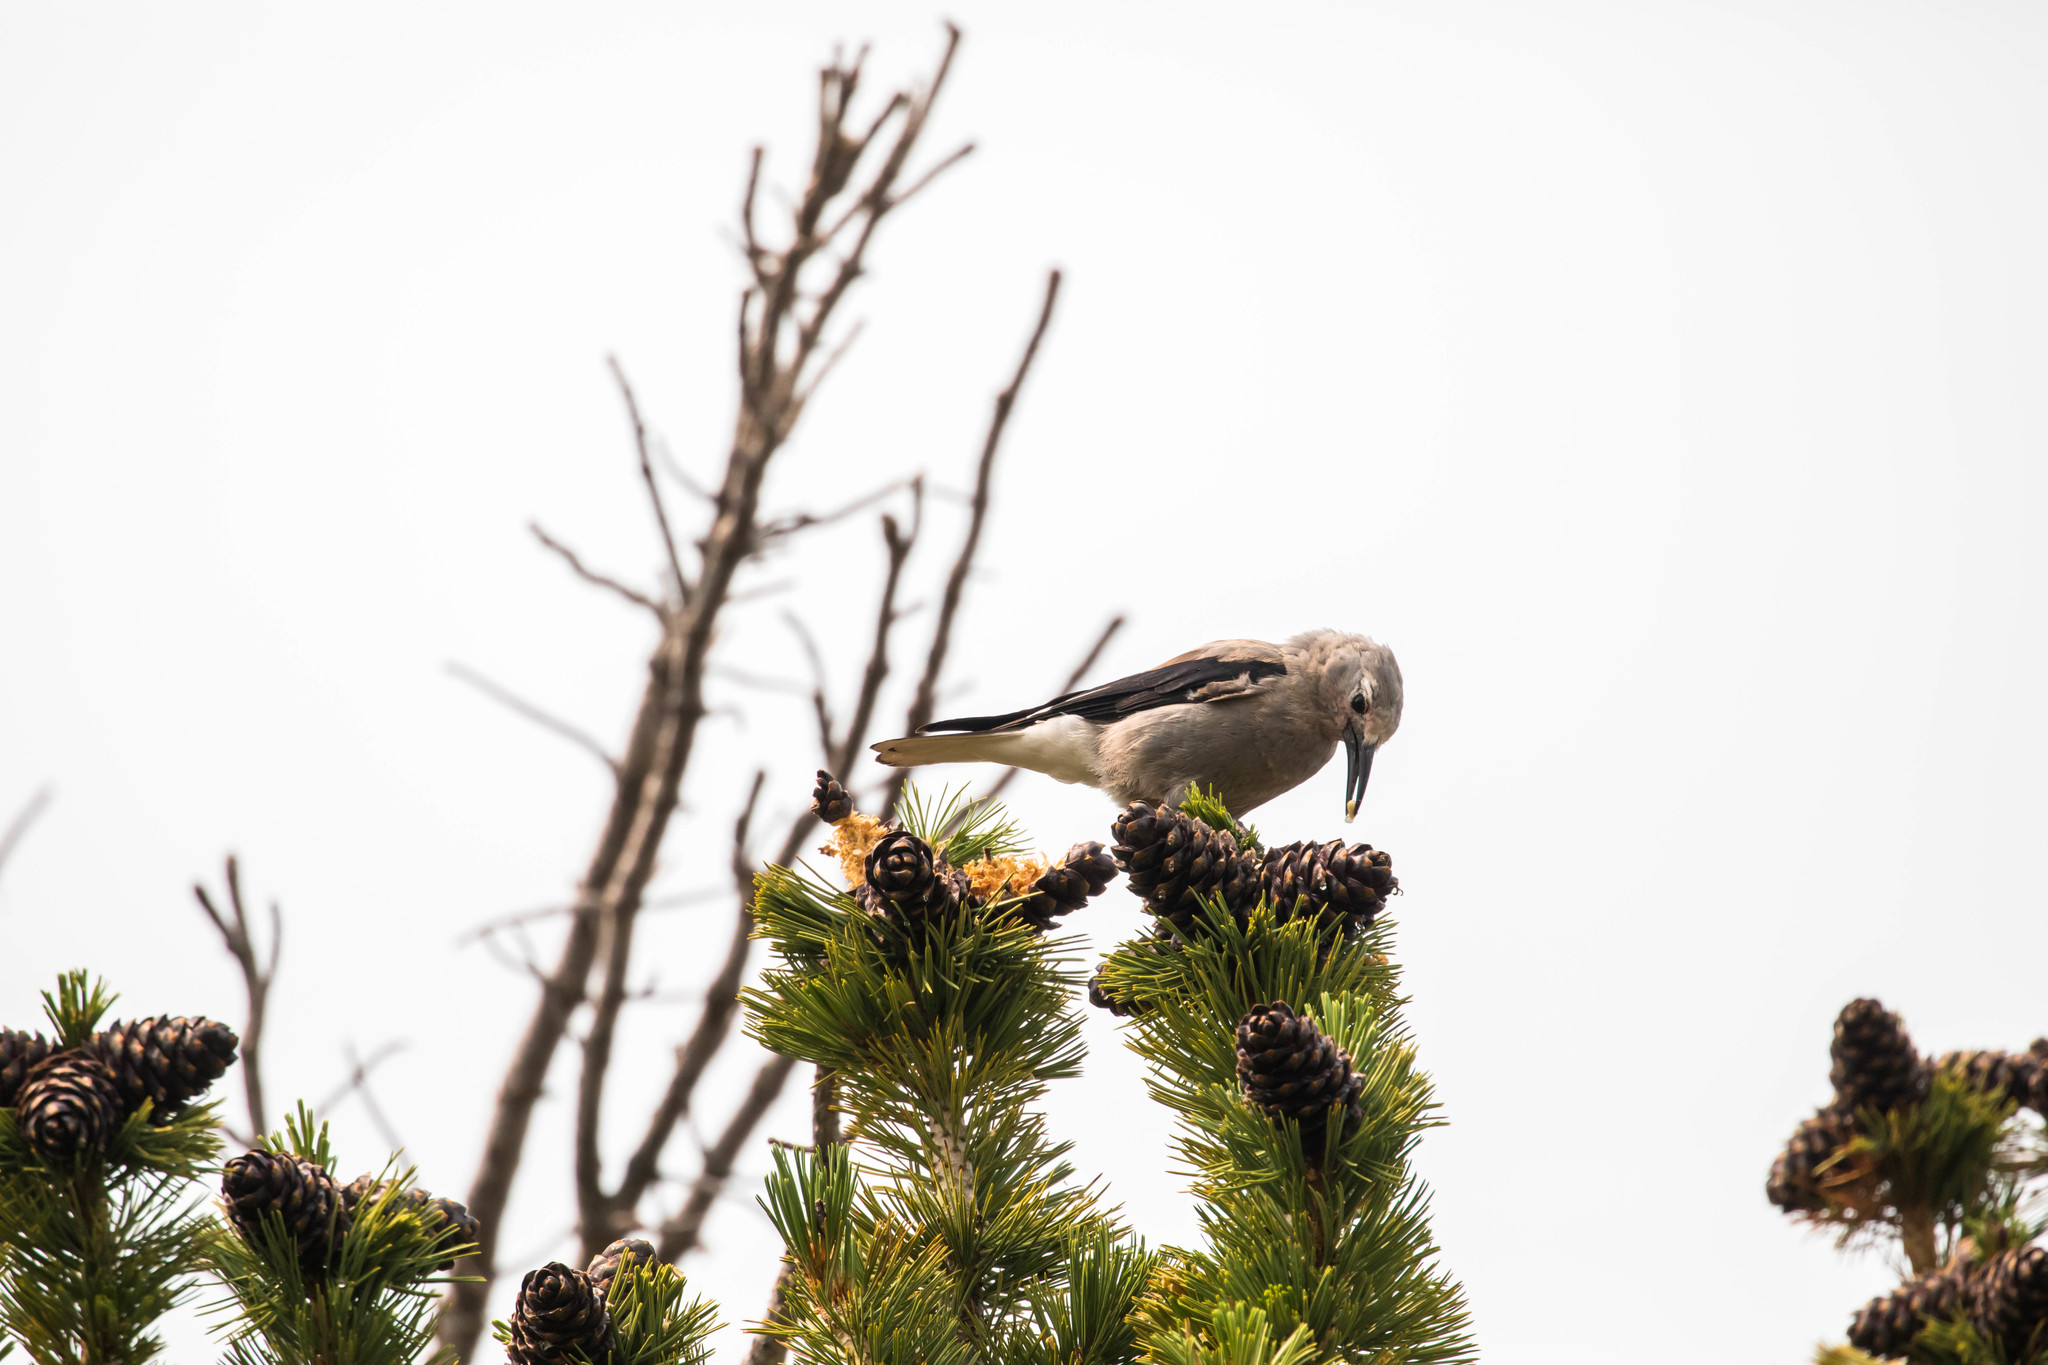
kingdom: Animalia
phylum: Chordata
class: Aves
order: Passeriformes
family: Corvidae
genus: Nucifraga
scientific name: Nucifraga columbiana
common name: Clark's nutcracker
